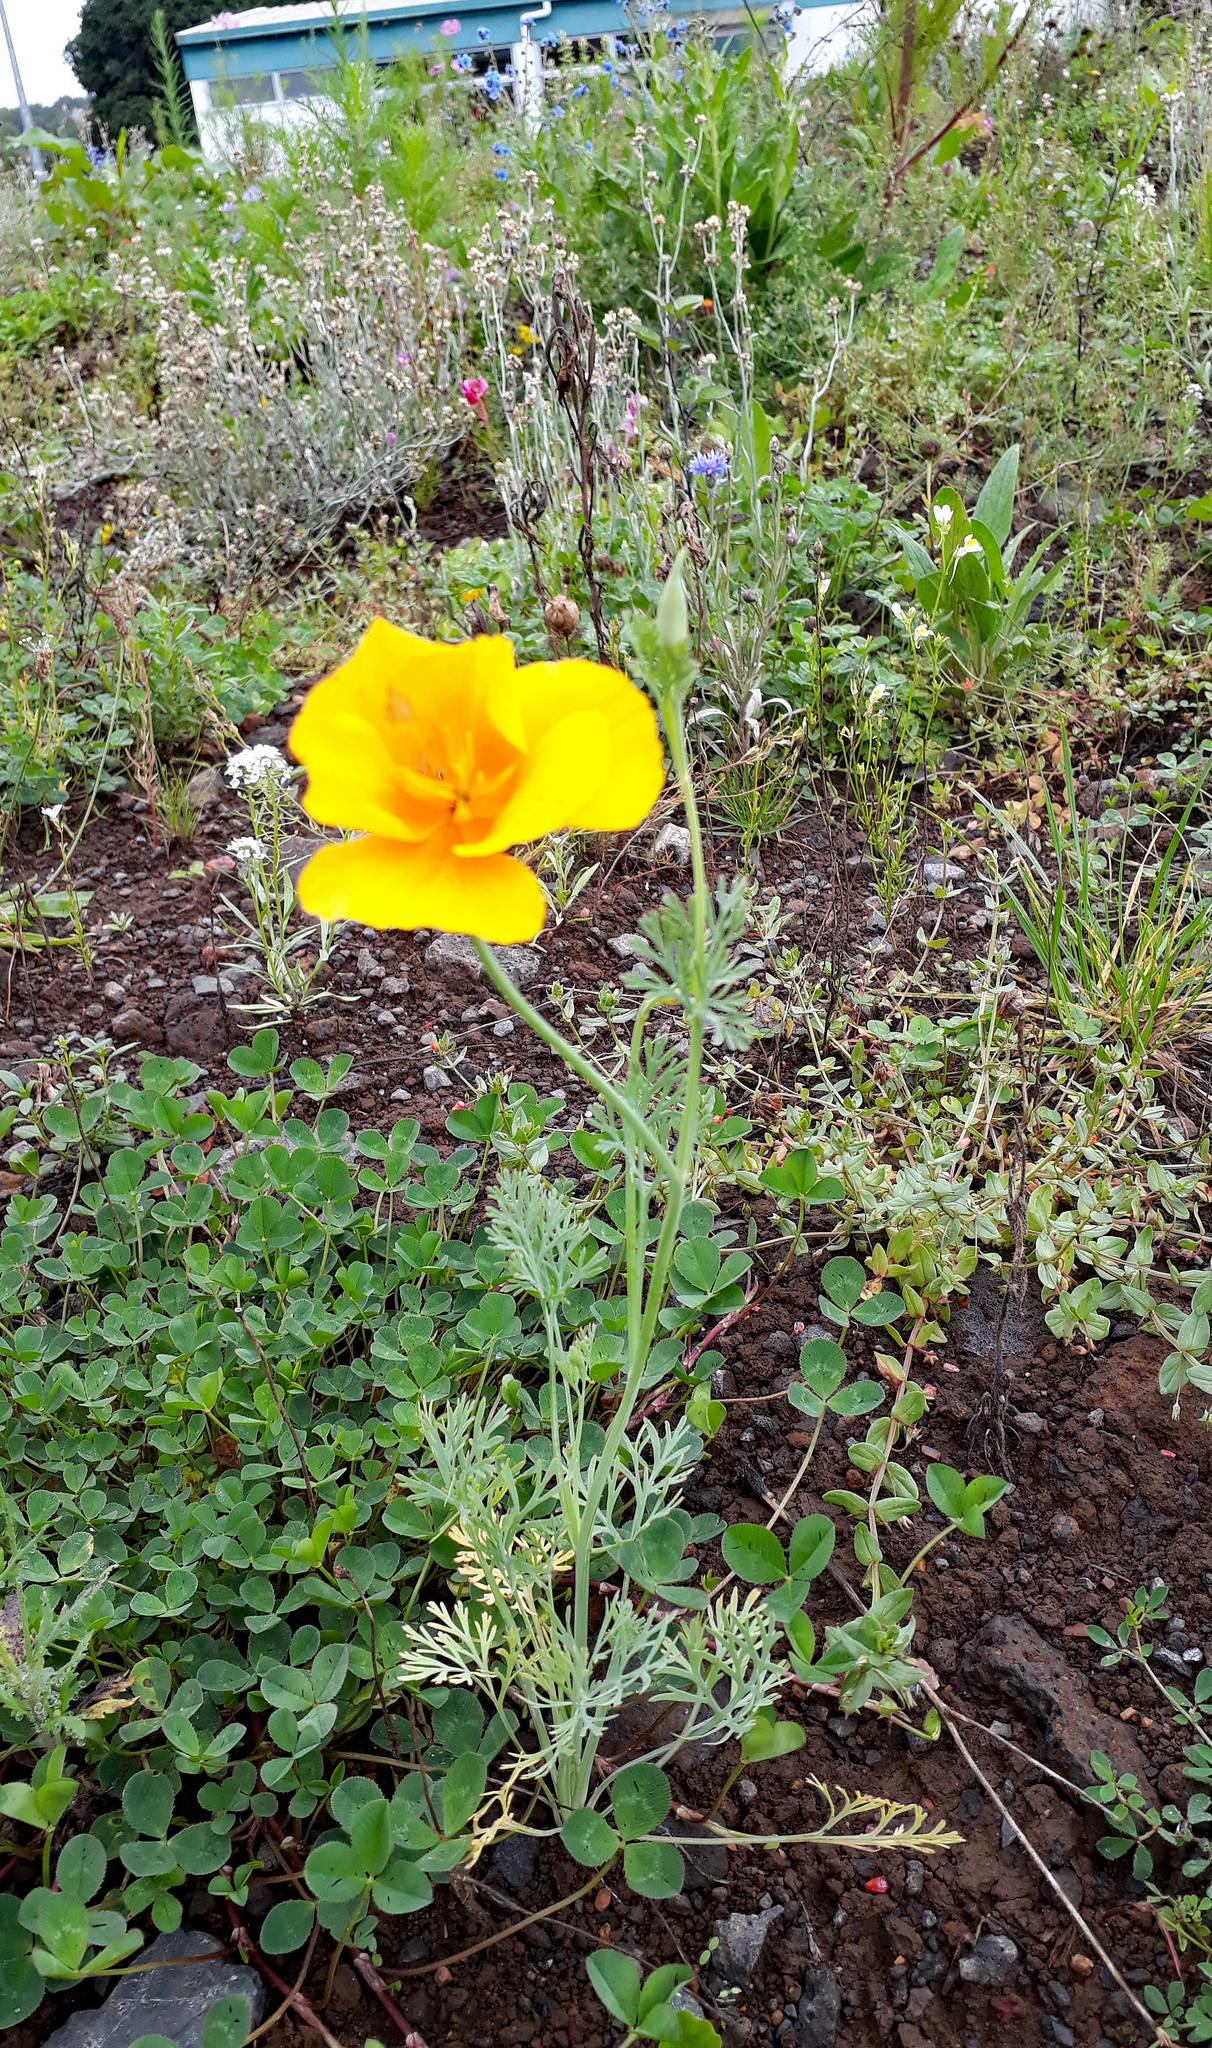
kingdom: Plantae
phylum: Tracheophyta
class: Magnoliopsida
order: Ranunculales
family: Papaveraceae
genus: Eschscholzia
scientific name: Eschscholzia californica
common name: California poppy
